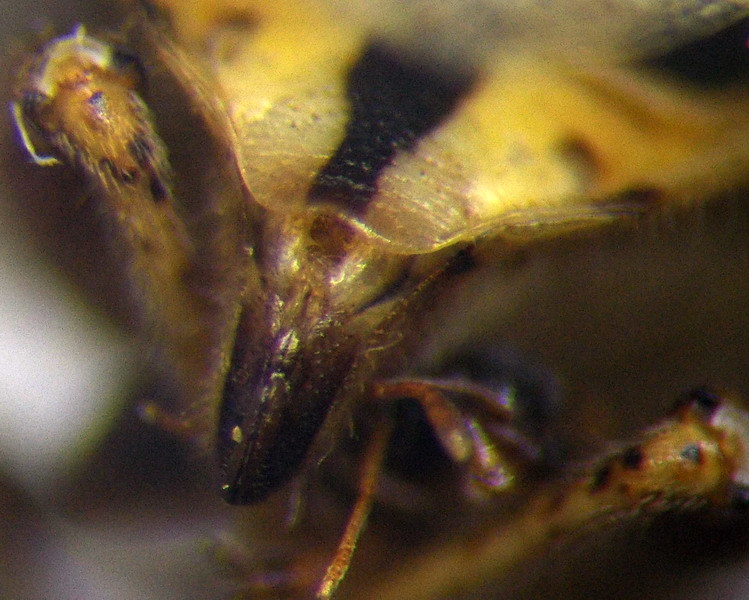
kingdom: Animalia
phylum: Arthropoda
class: Insecta
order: Hemiptera
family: Rhopalidae
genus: Stictopleurus
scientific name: Stictopleurus abutilon
